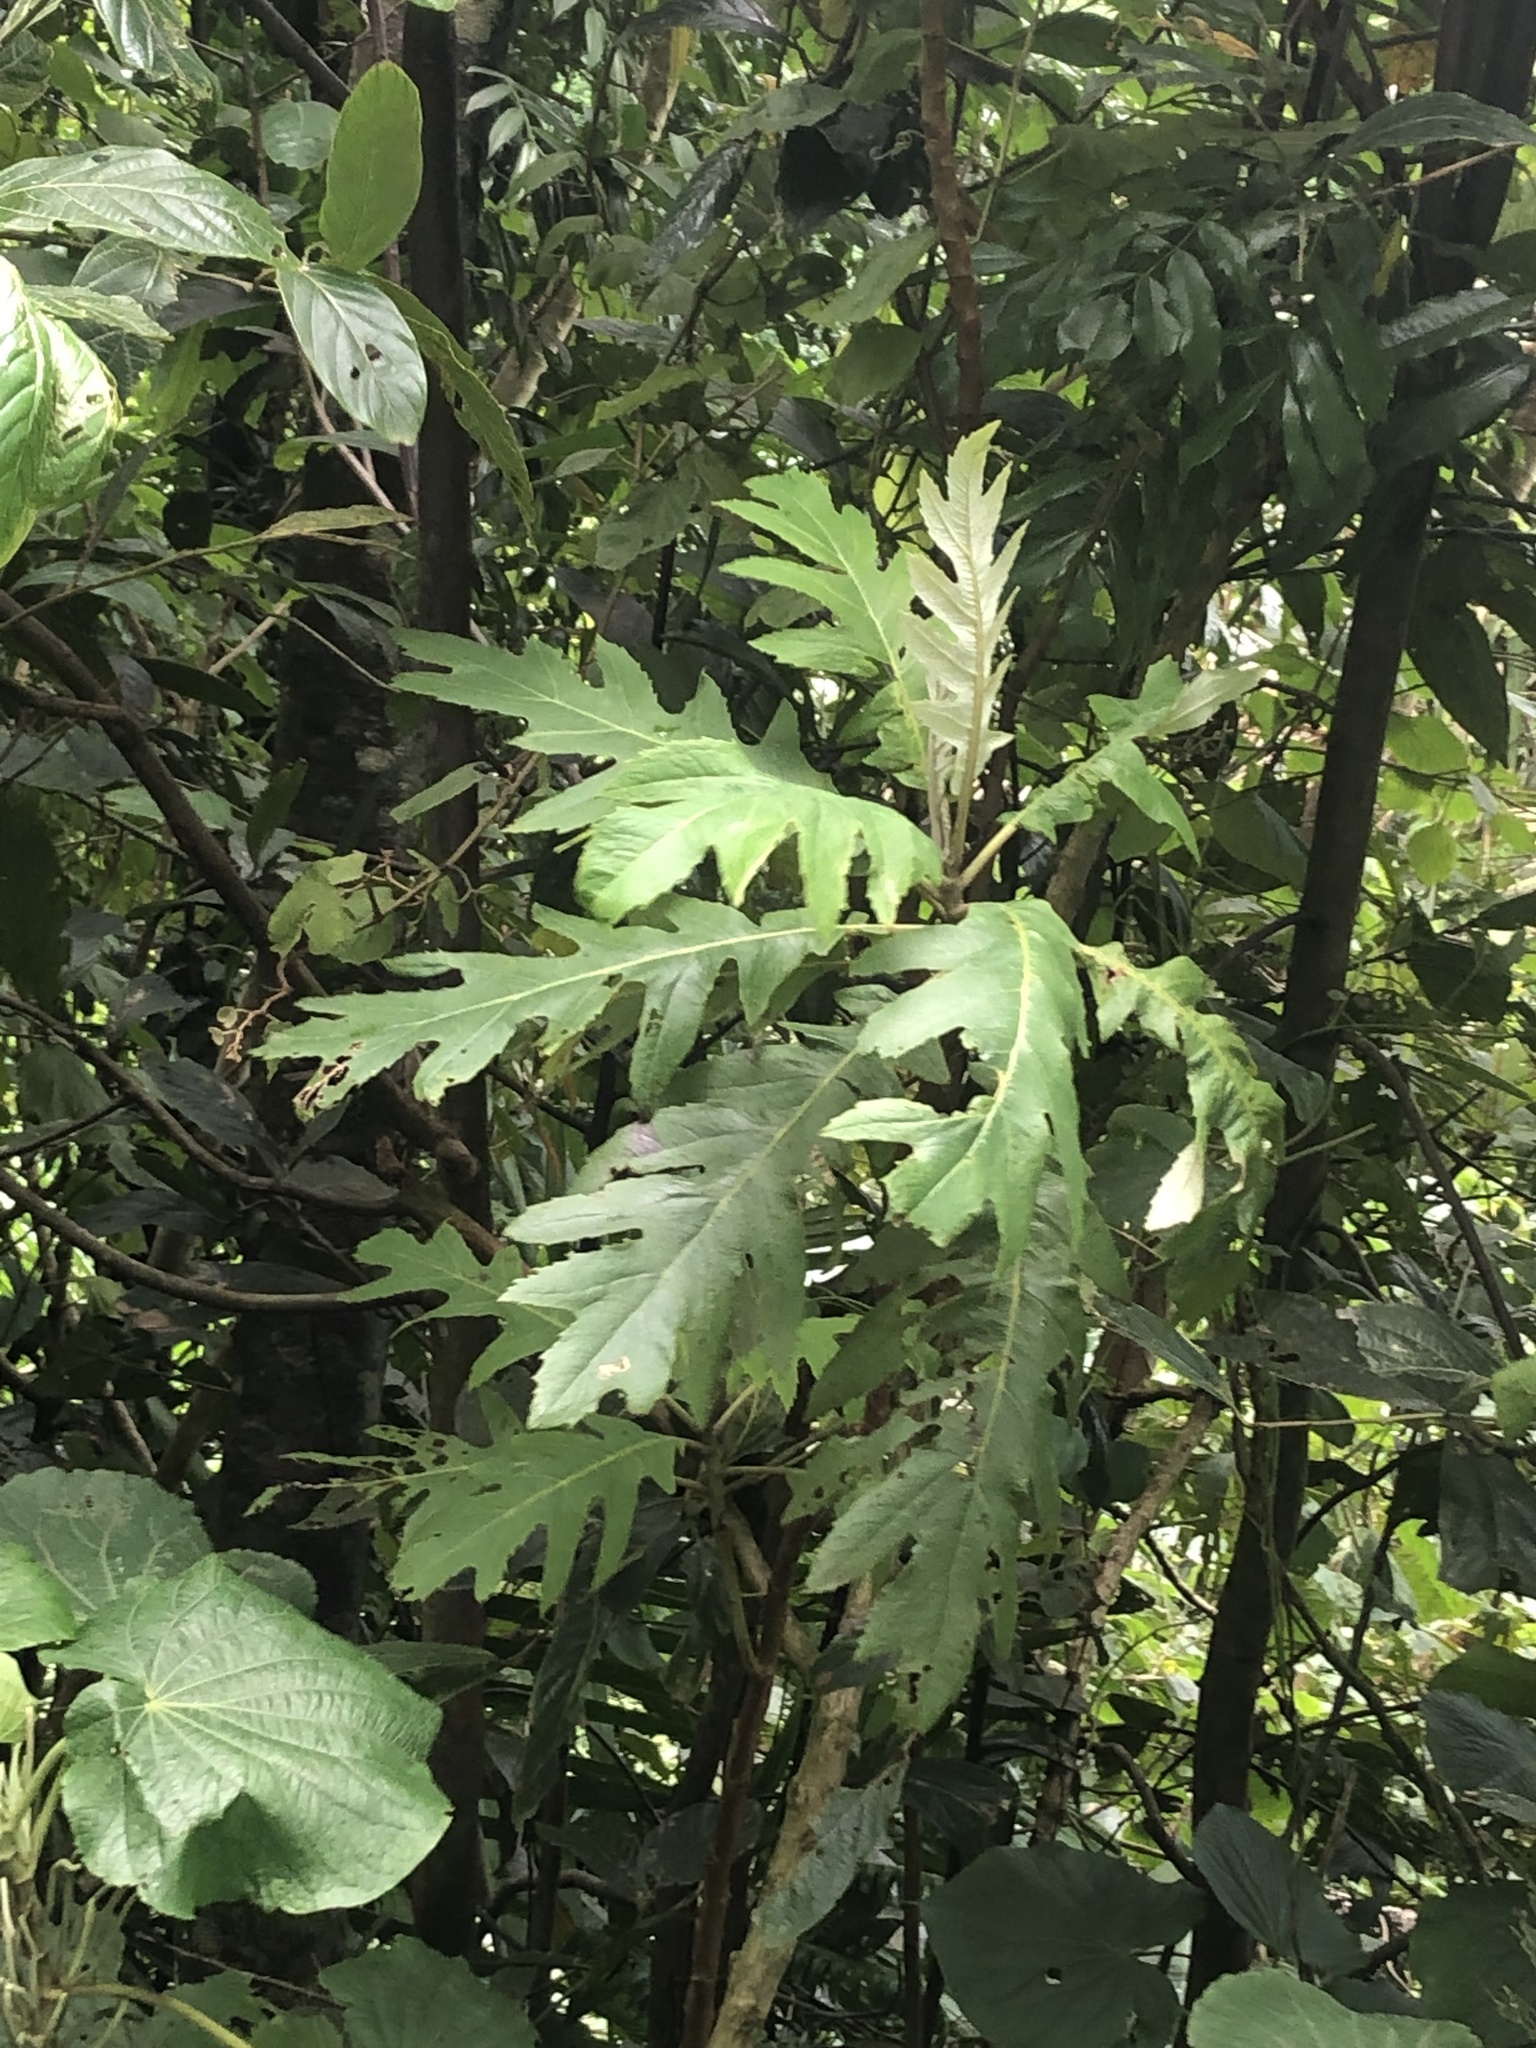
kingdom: Plantae
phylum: Tracheophyta
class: Magnoliopsida
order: Ranunculales
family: Papaveraceae
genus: Bocconia
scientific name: Bocconia frutescens
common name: Tree poppy
